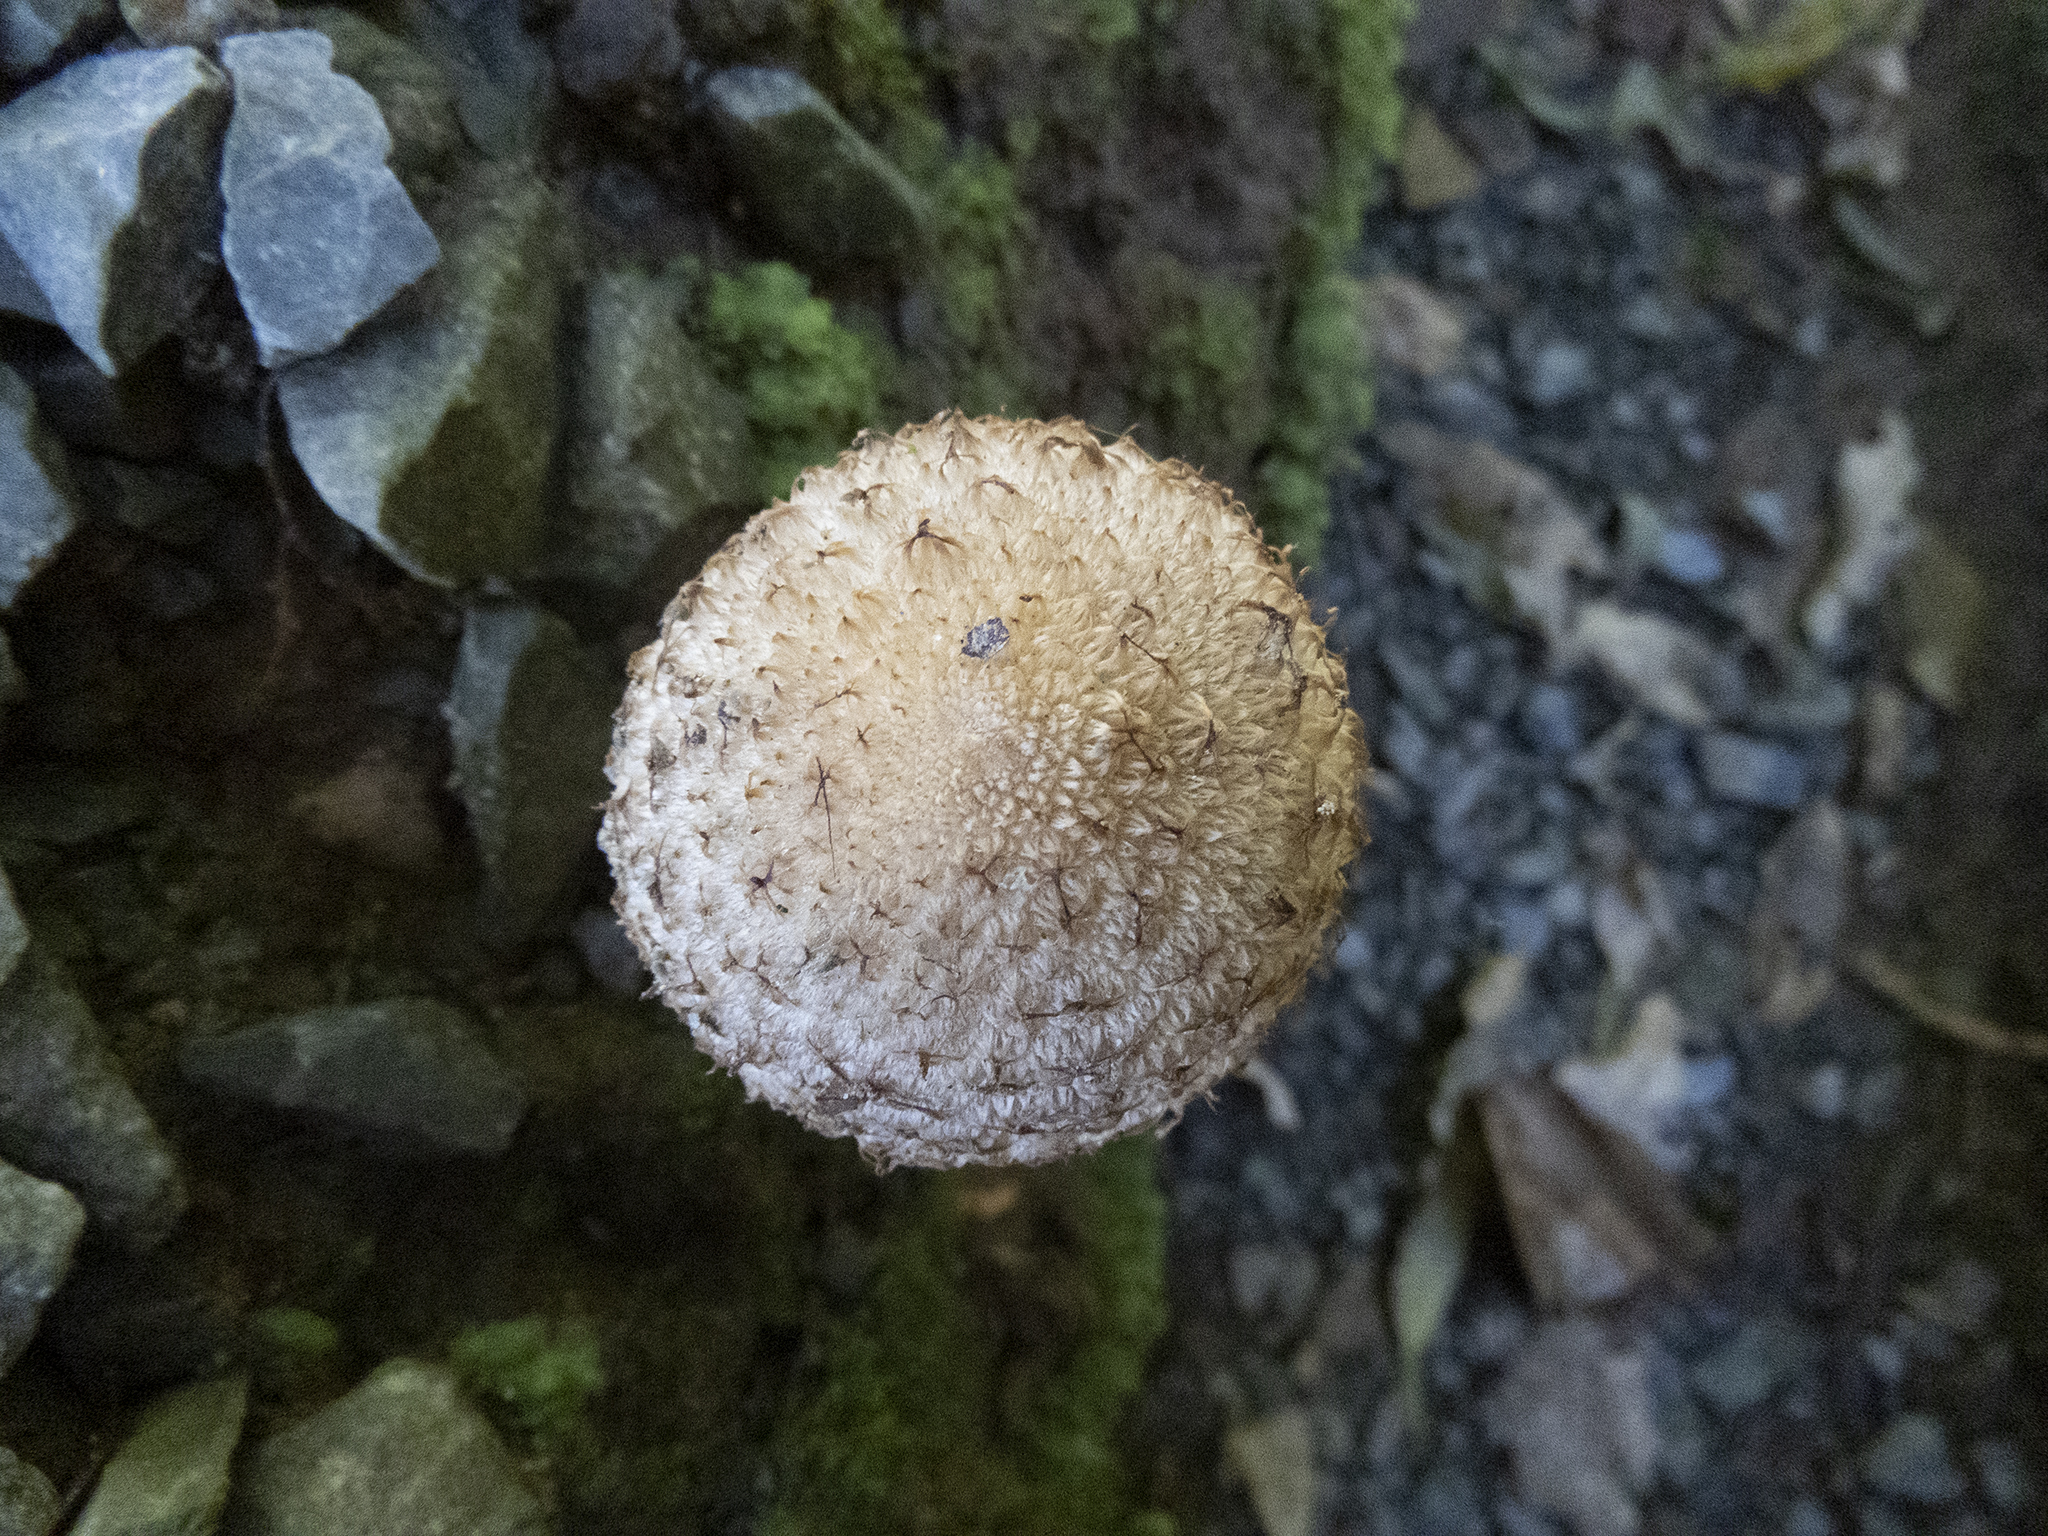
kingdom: Fungi
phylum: Basidiomycota
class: Agaricomycetes
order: Agaricales
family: Psathyrellaceae
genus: Psathyrella
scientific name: Psathyrella asperospora
